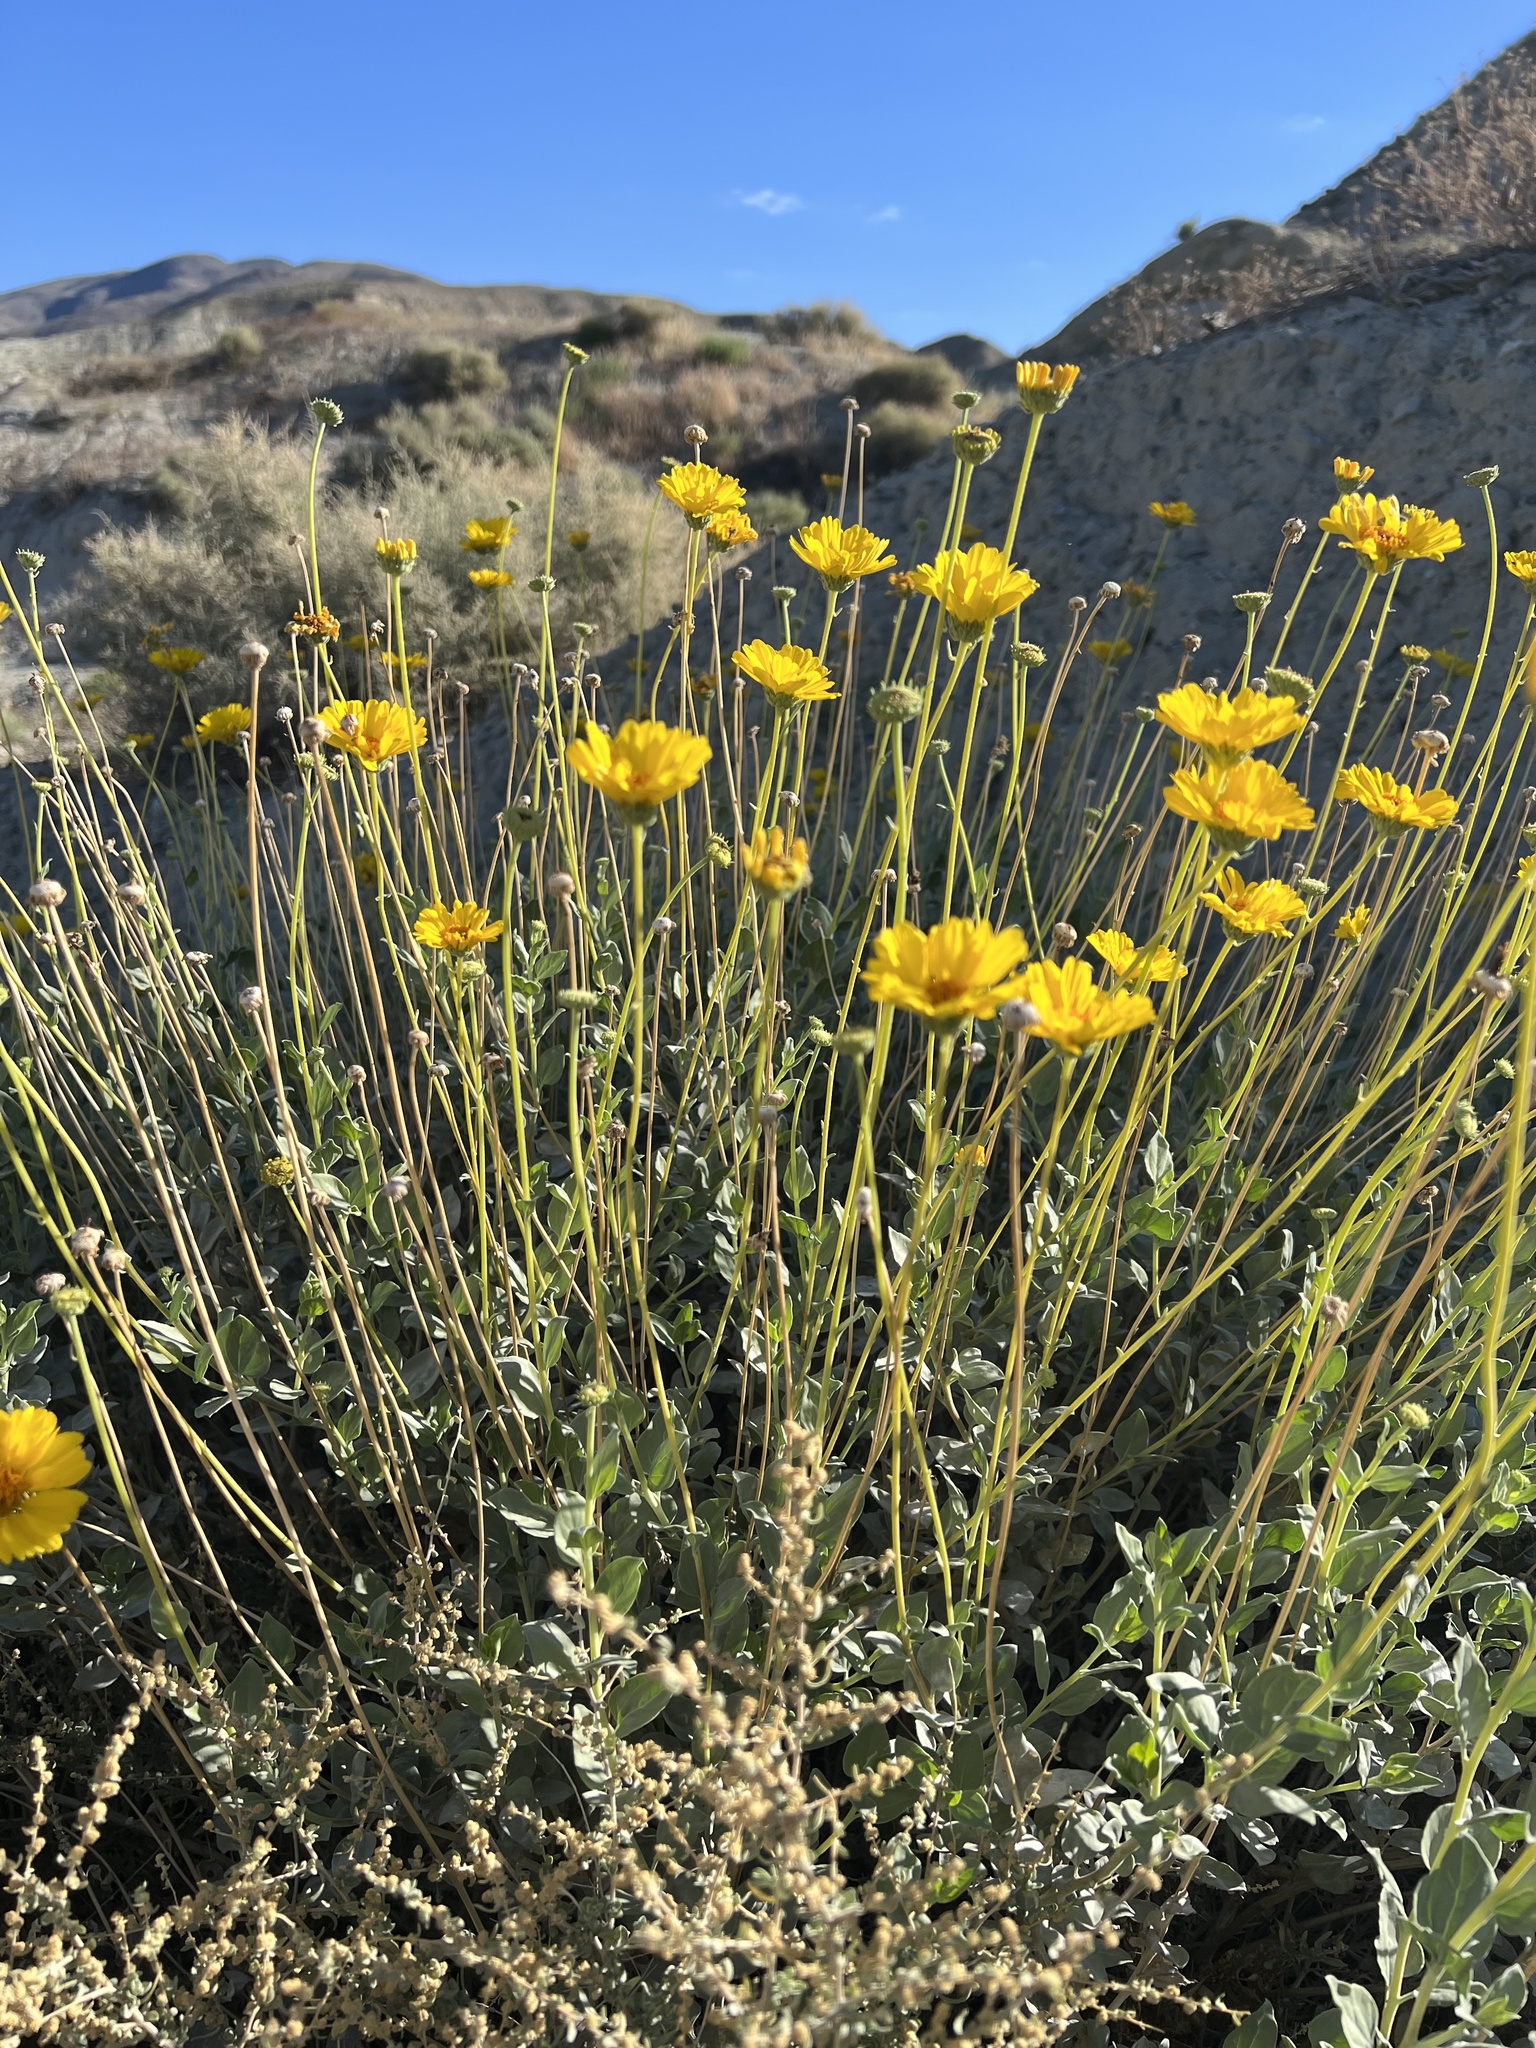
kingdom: Plantae
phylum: Tracheophyta
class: Magnoliopsida
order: Asterales
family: Asteraceae
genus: Encelia
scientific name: Encelia actoni
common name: Acton encelia
